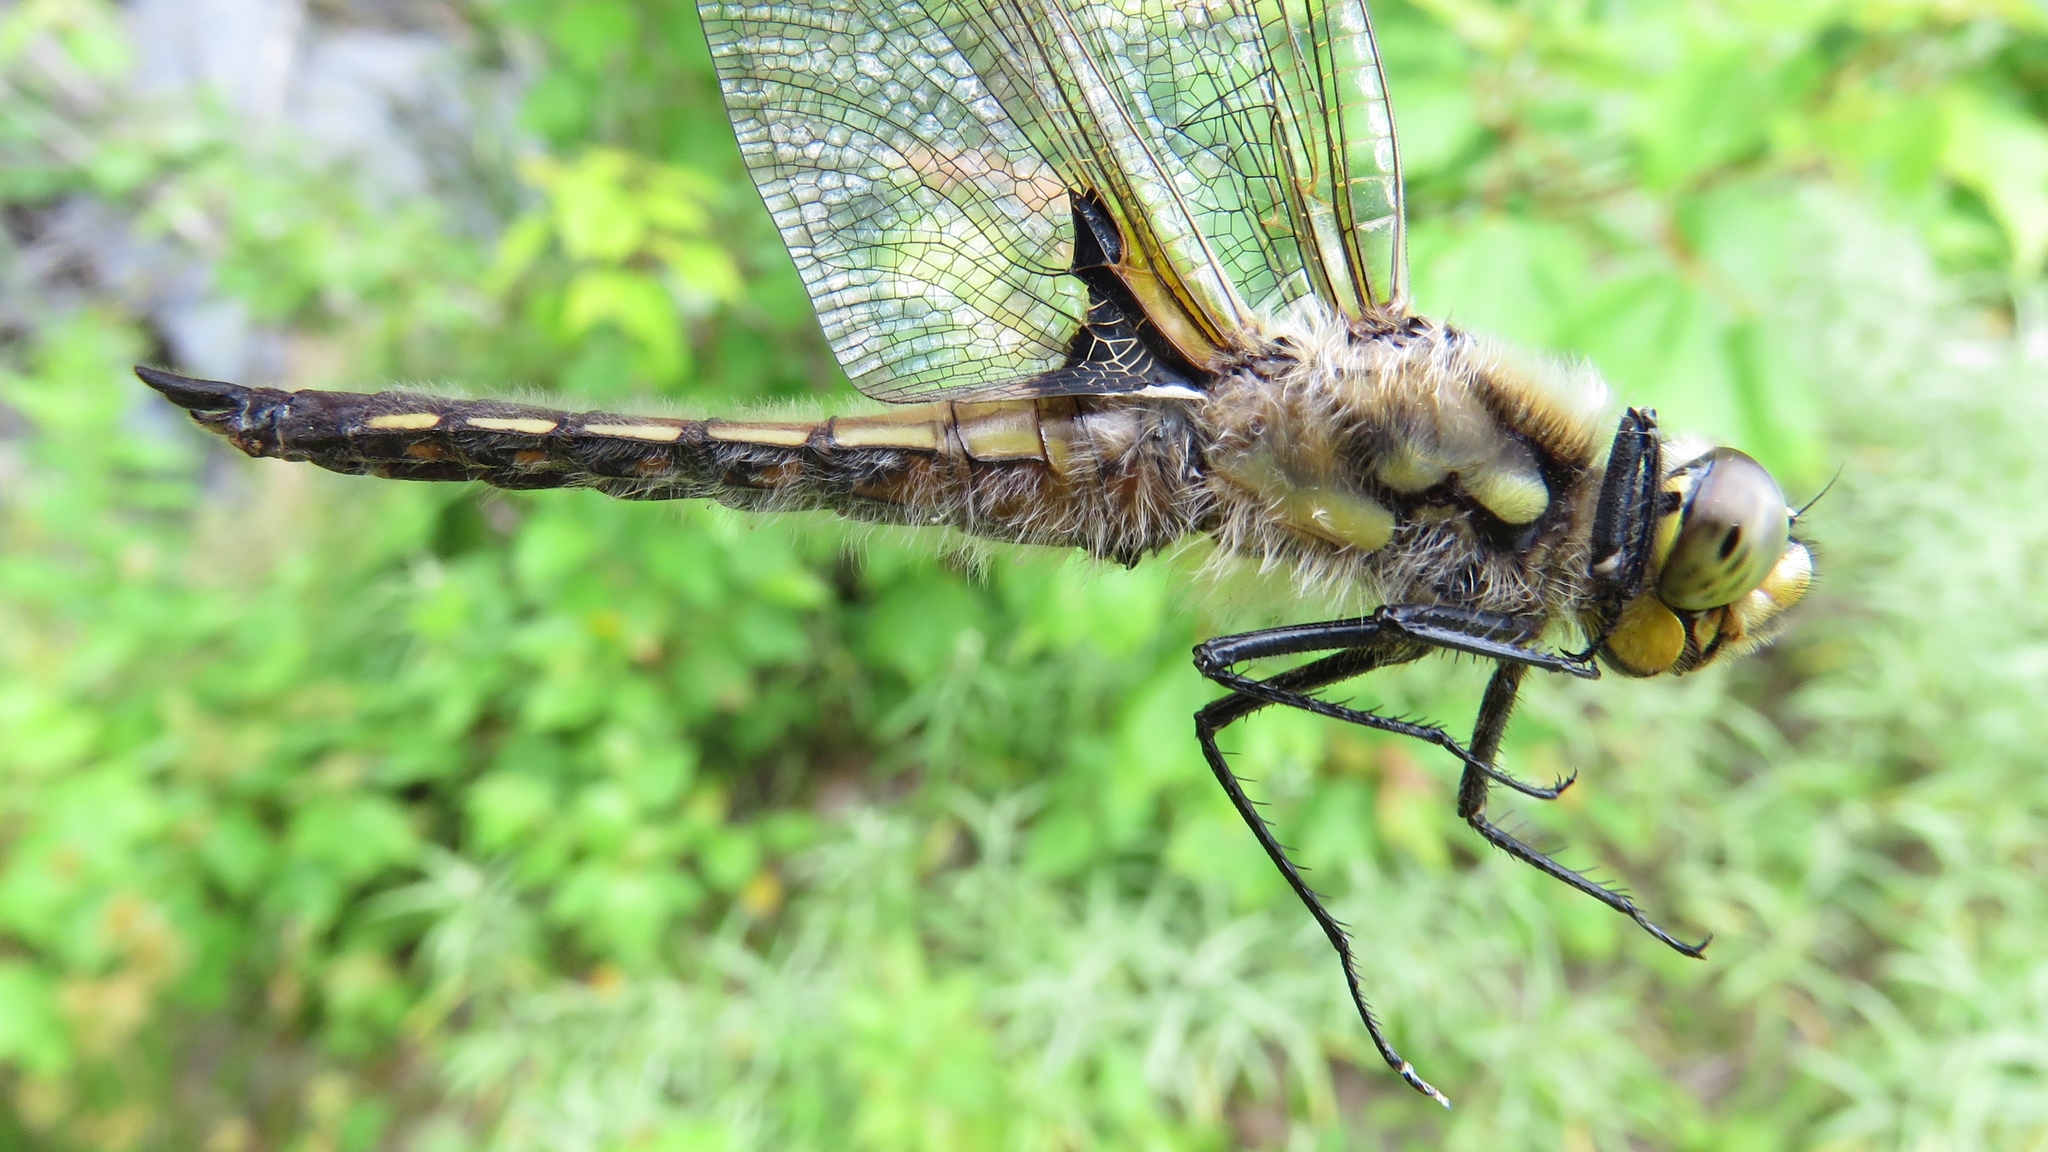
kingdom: Animalia
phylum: Arthropoda
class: Insecta
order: Odonata
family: Libellulidae
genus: Libellula
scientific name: Libellula quadrimaculata
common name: Four-spotted chaser
